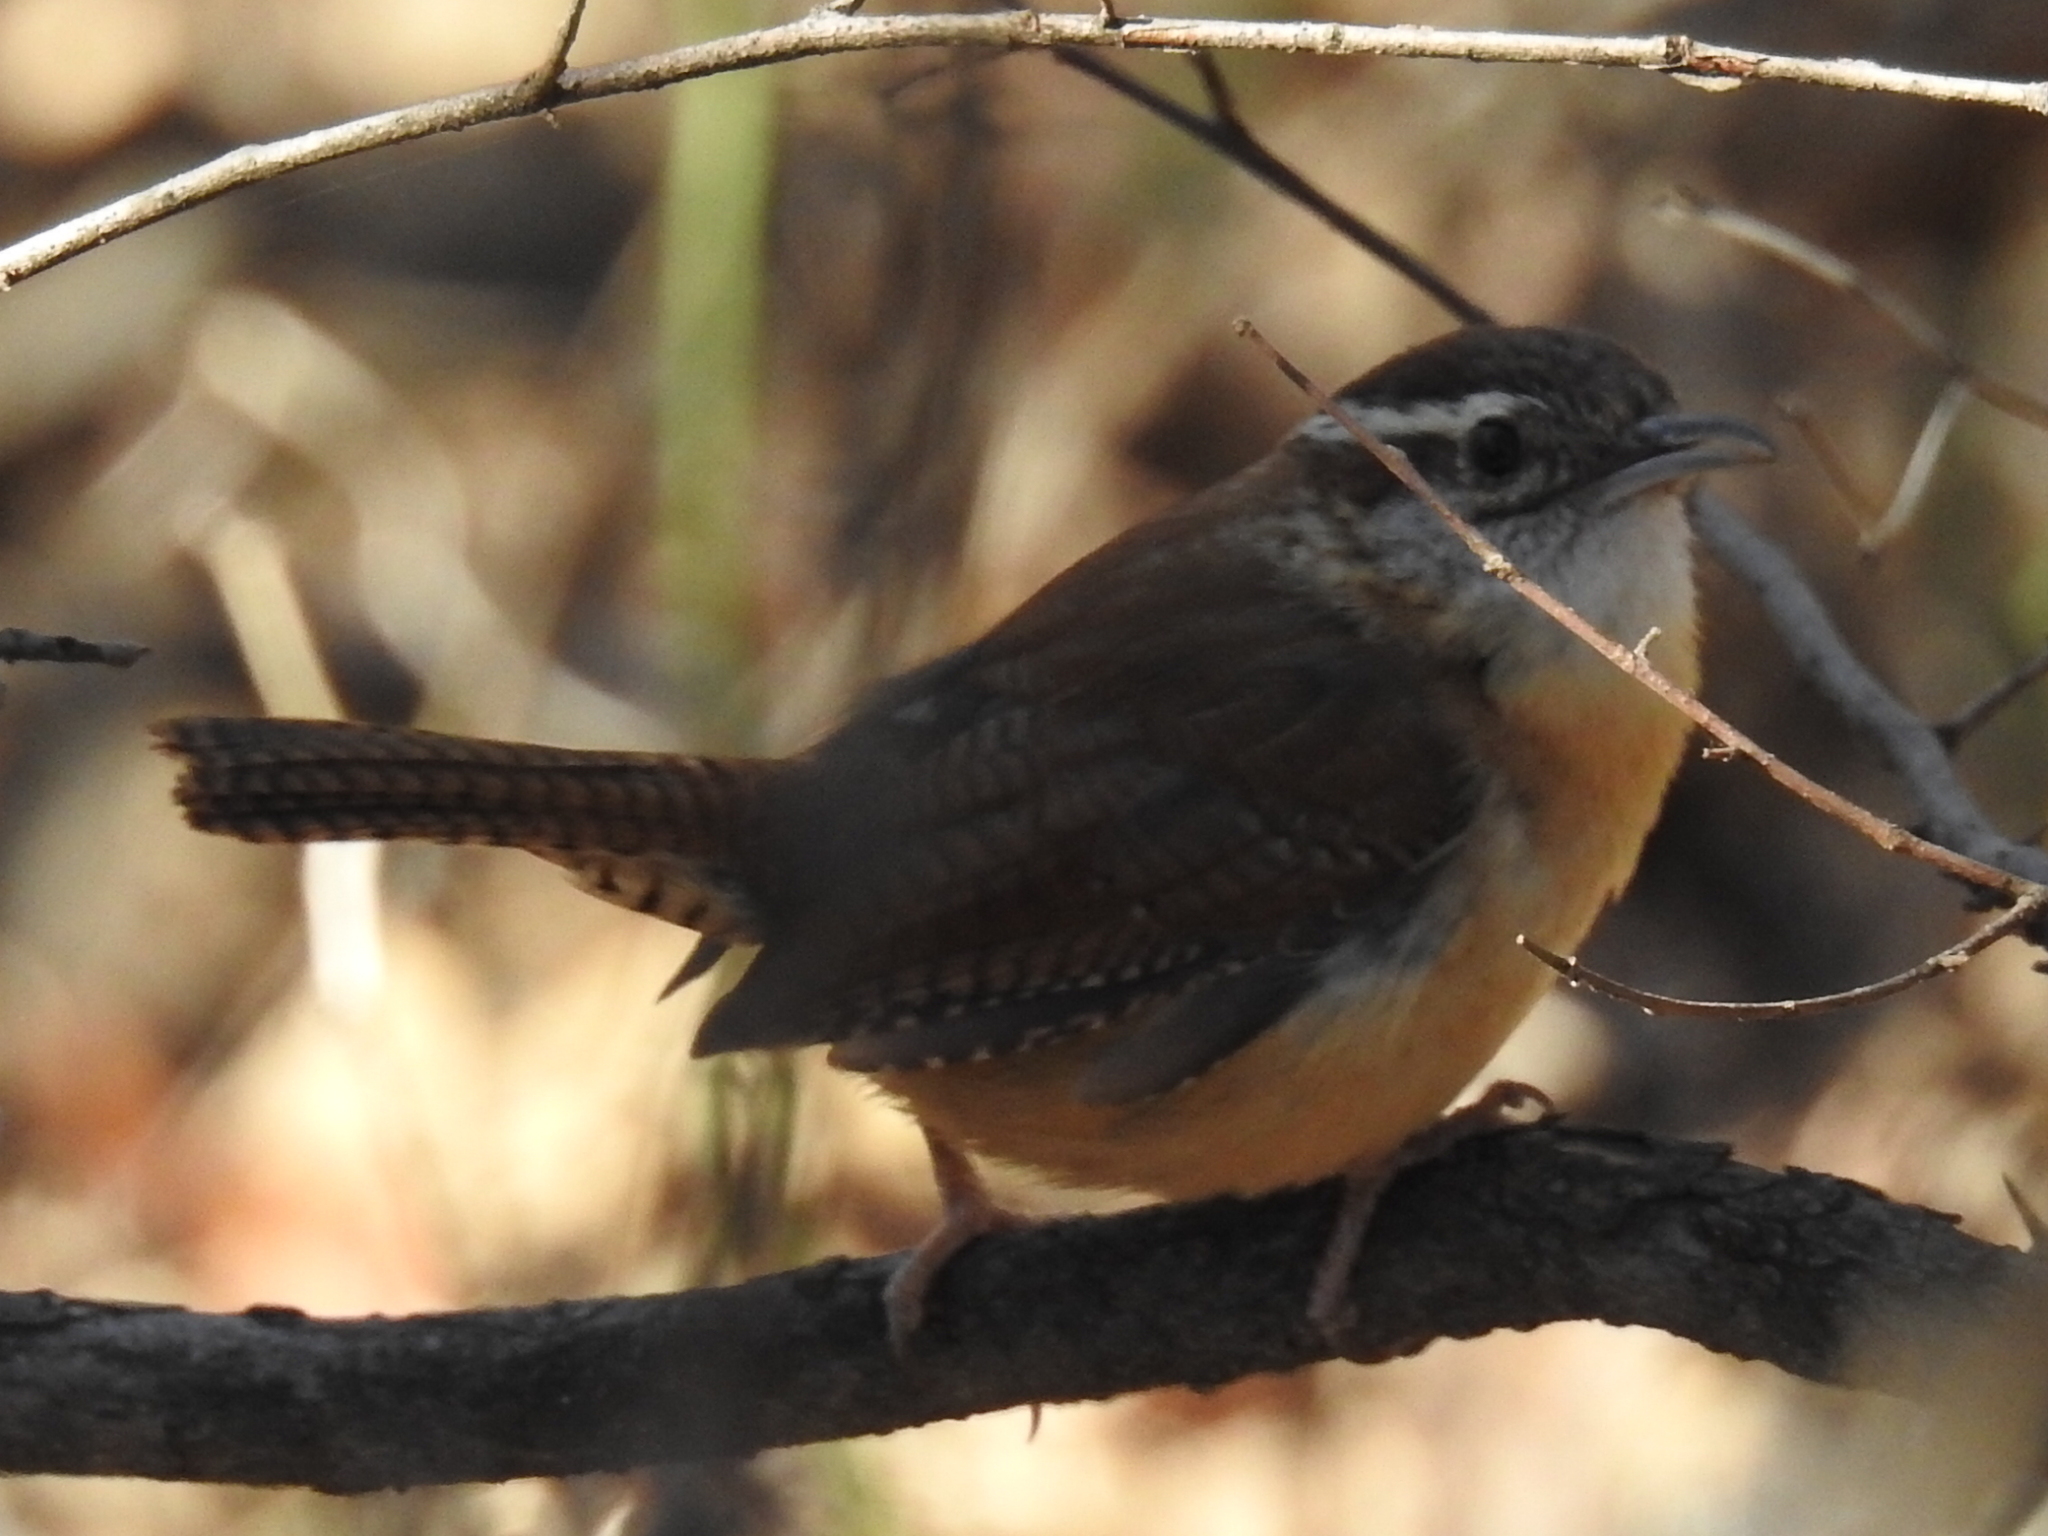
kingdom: Animalia
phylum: Chordata
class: Aves
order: Passeriformes
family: Troglodytidae
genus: Thryothorus
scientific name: Thryothorus ludovicianus
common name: Carolina wren
